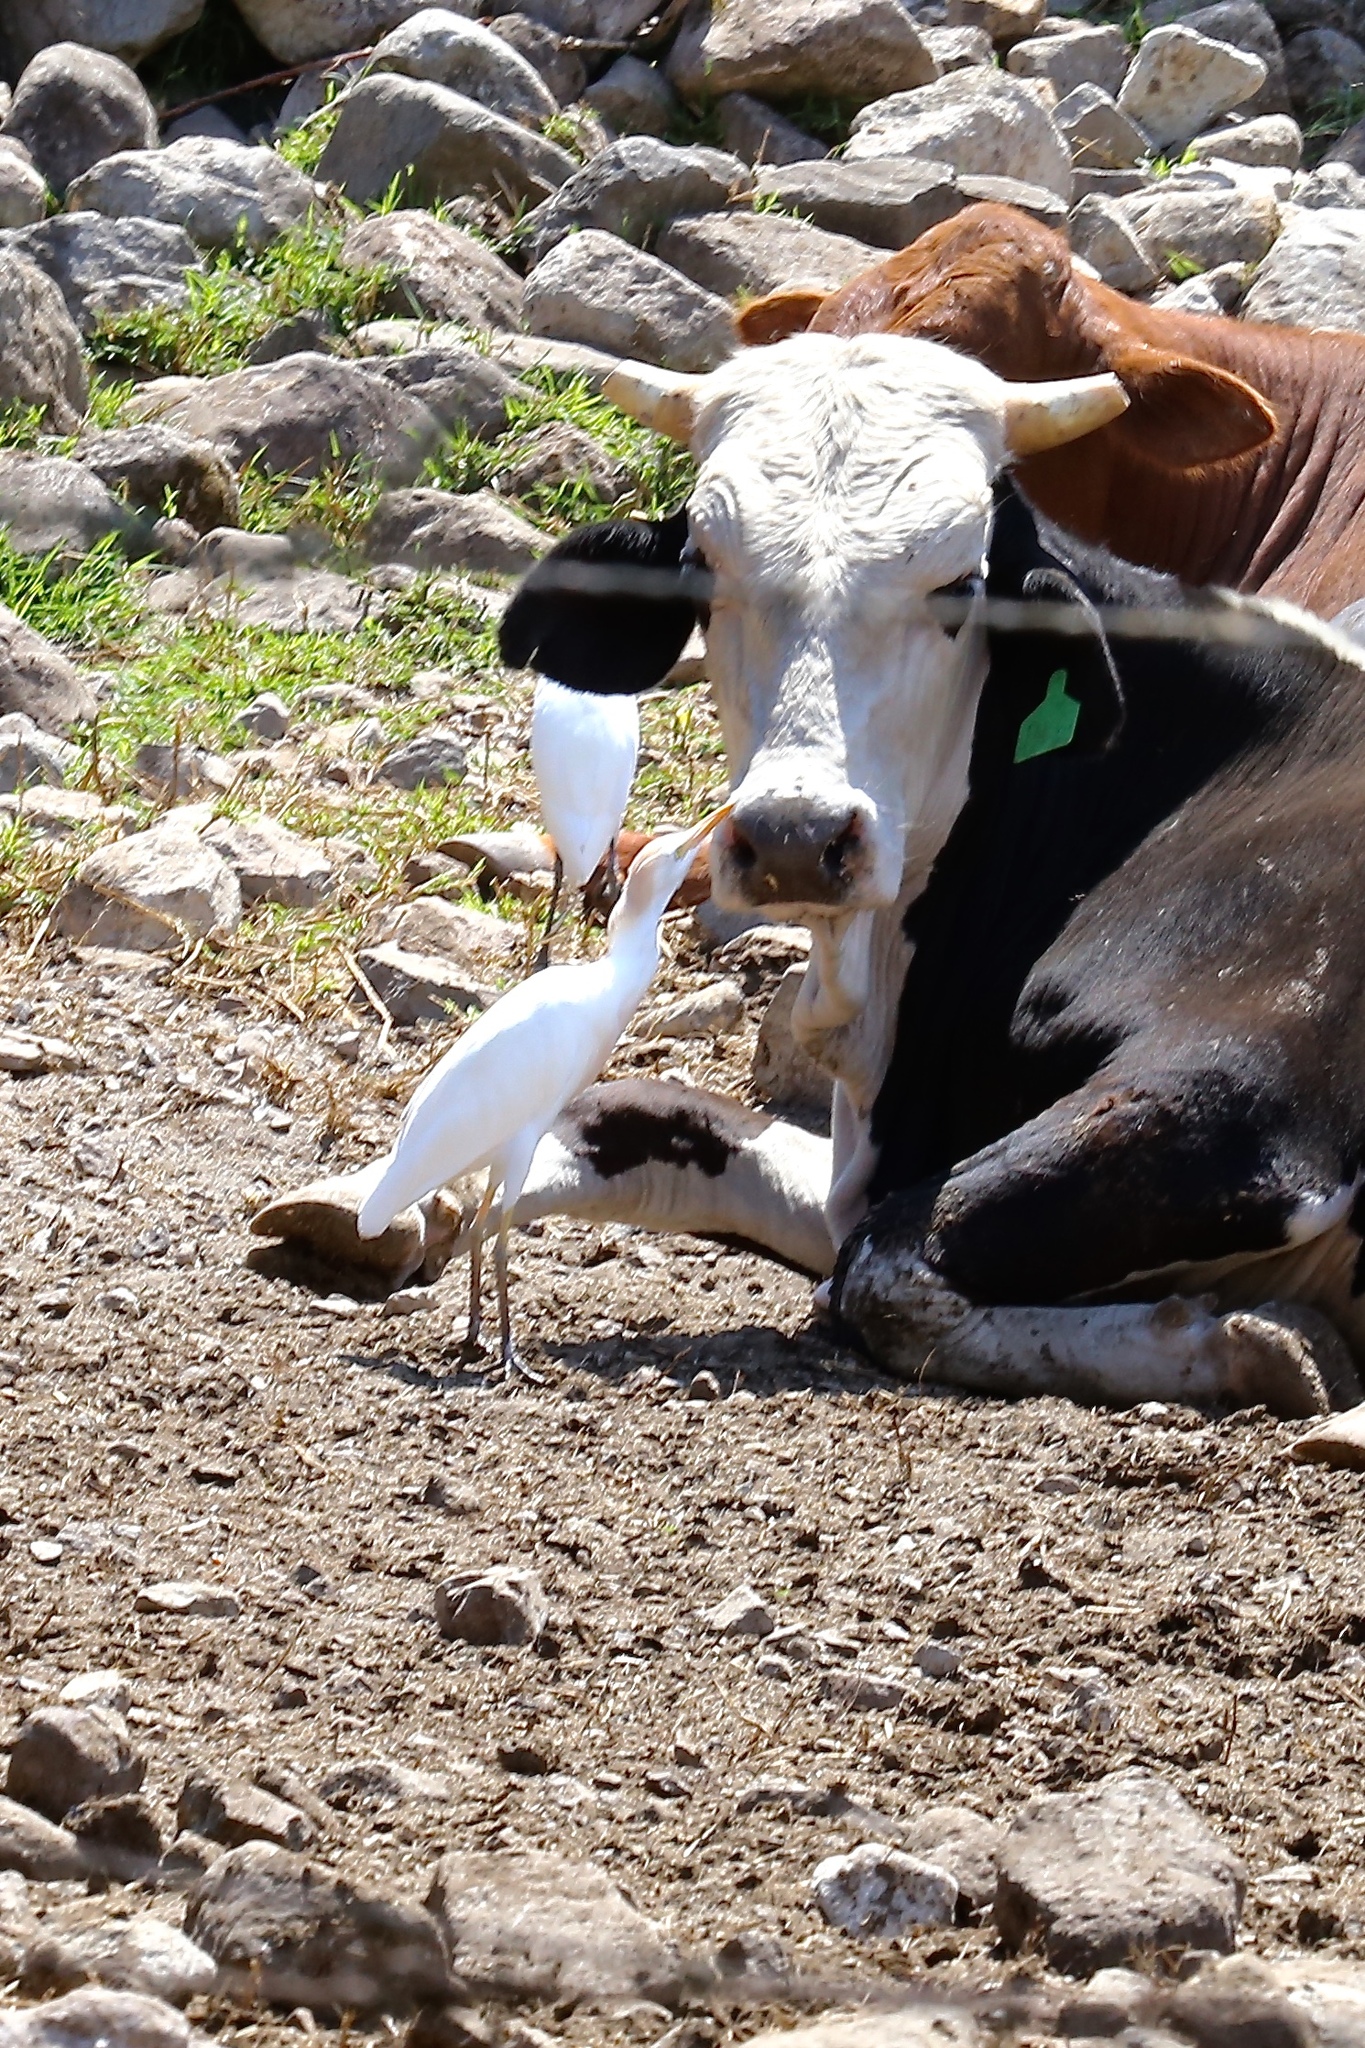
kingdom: Animalia
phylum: Chordata
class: Aves
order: Pelecaniformes
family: Ardeidae
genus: Bubulcus
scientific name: Bubulcus ibis
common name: Cattle egret
